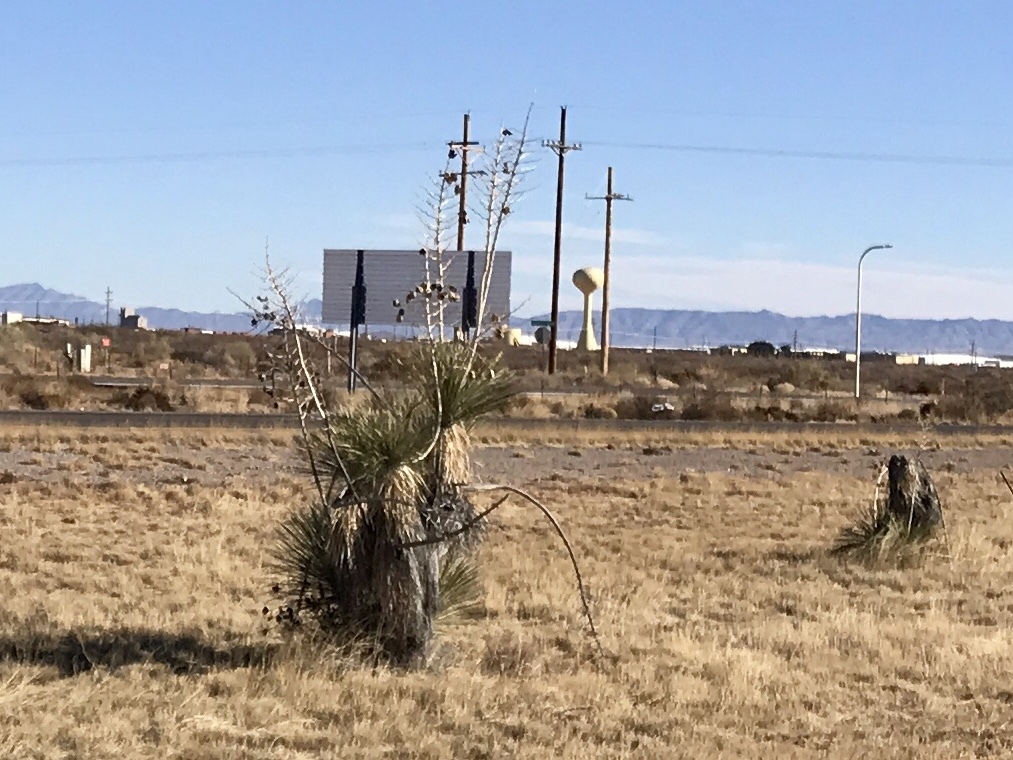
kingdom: Plantae
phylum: Tracheophyta
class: Liliopsida
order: Asparagales
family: Asparagaceae
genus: Yucca
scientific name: Yucca elata
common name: Palmella
